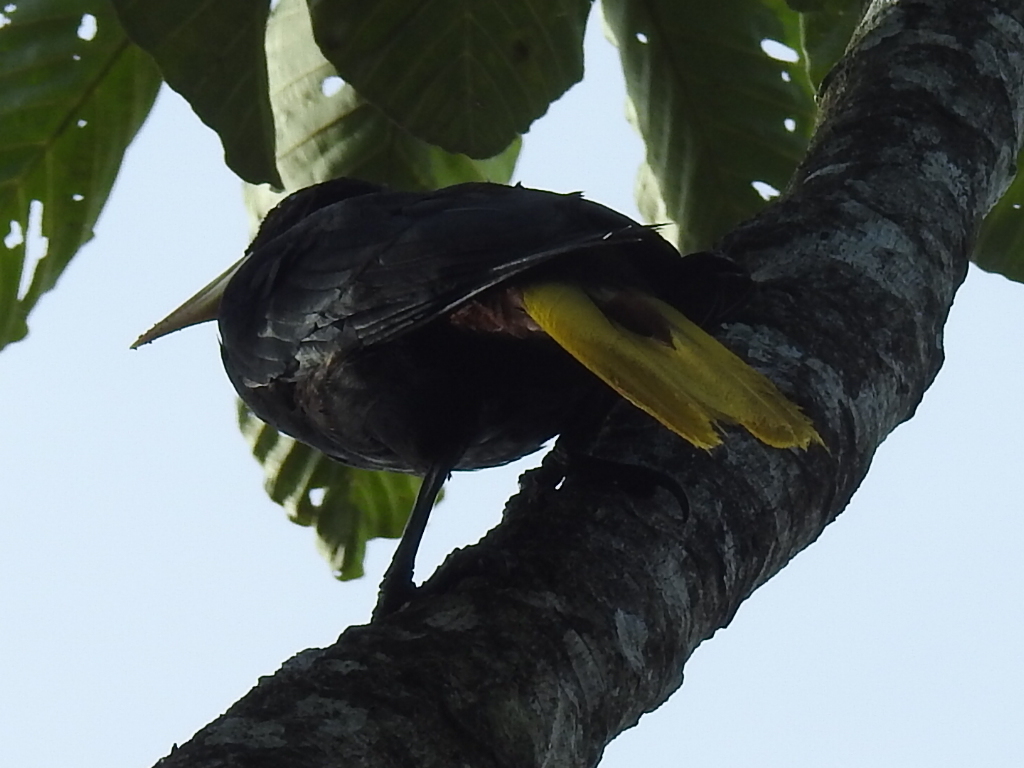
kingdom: Animalia
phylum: Chordata
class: Aves
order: Passeriformes
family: Icteridae
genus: Psarocolius
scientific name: Psarocolius decumanus
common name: Crested oropendola
